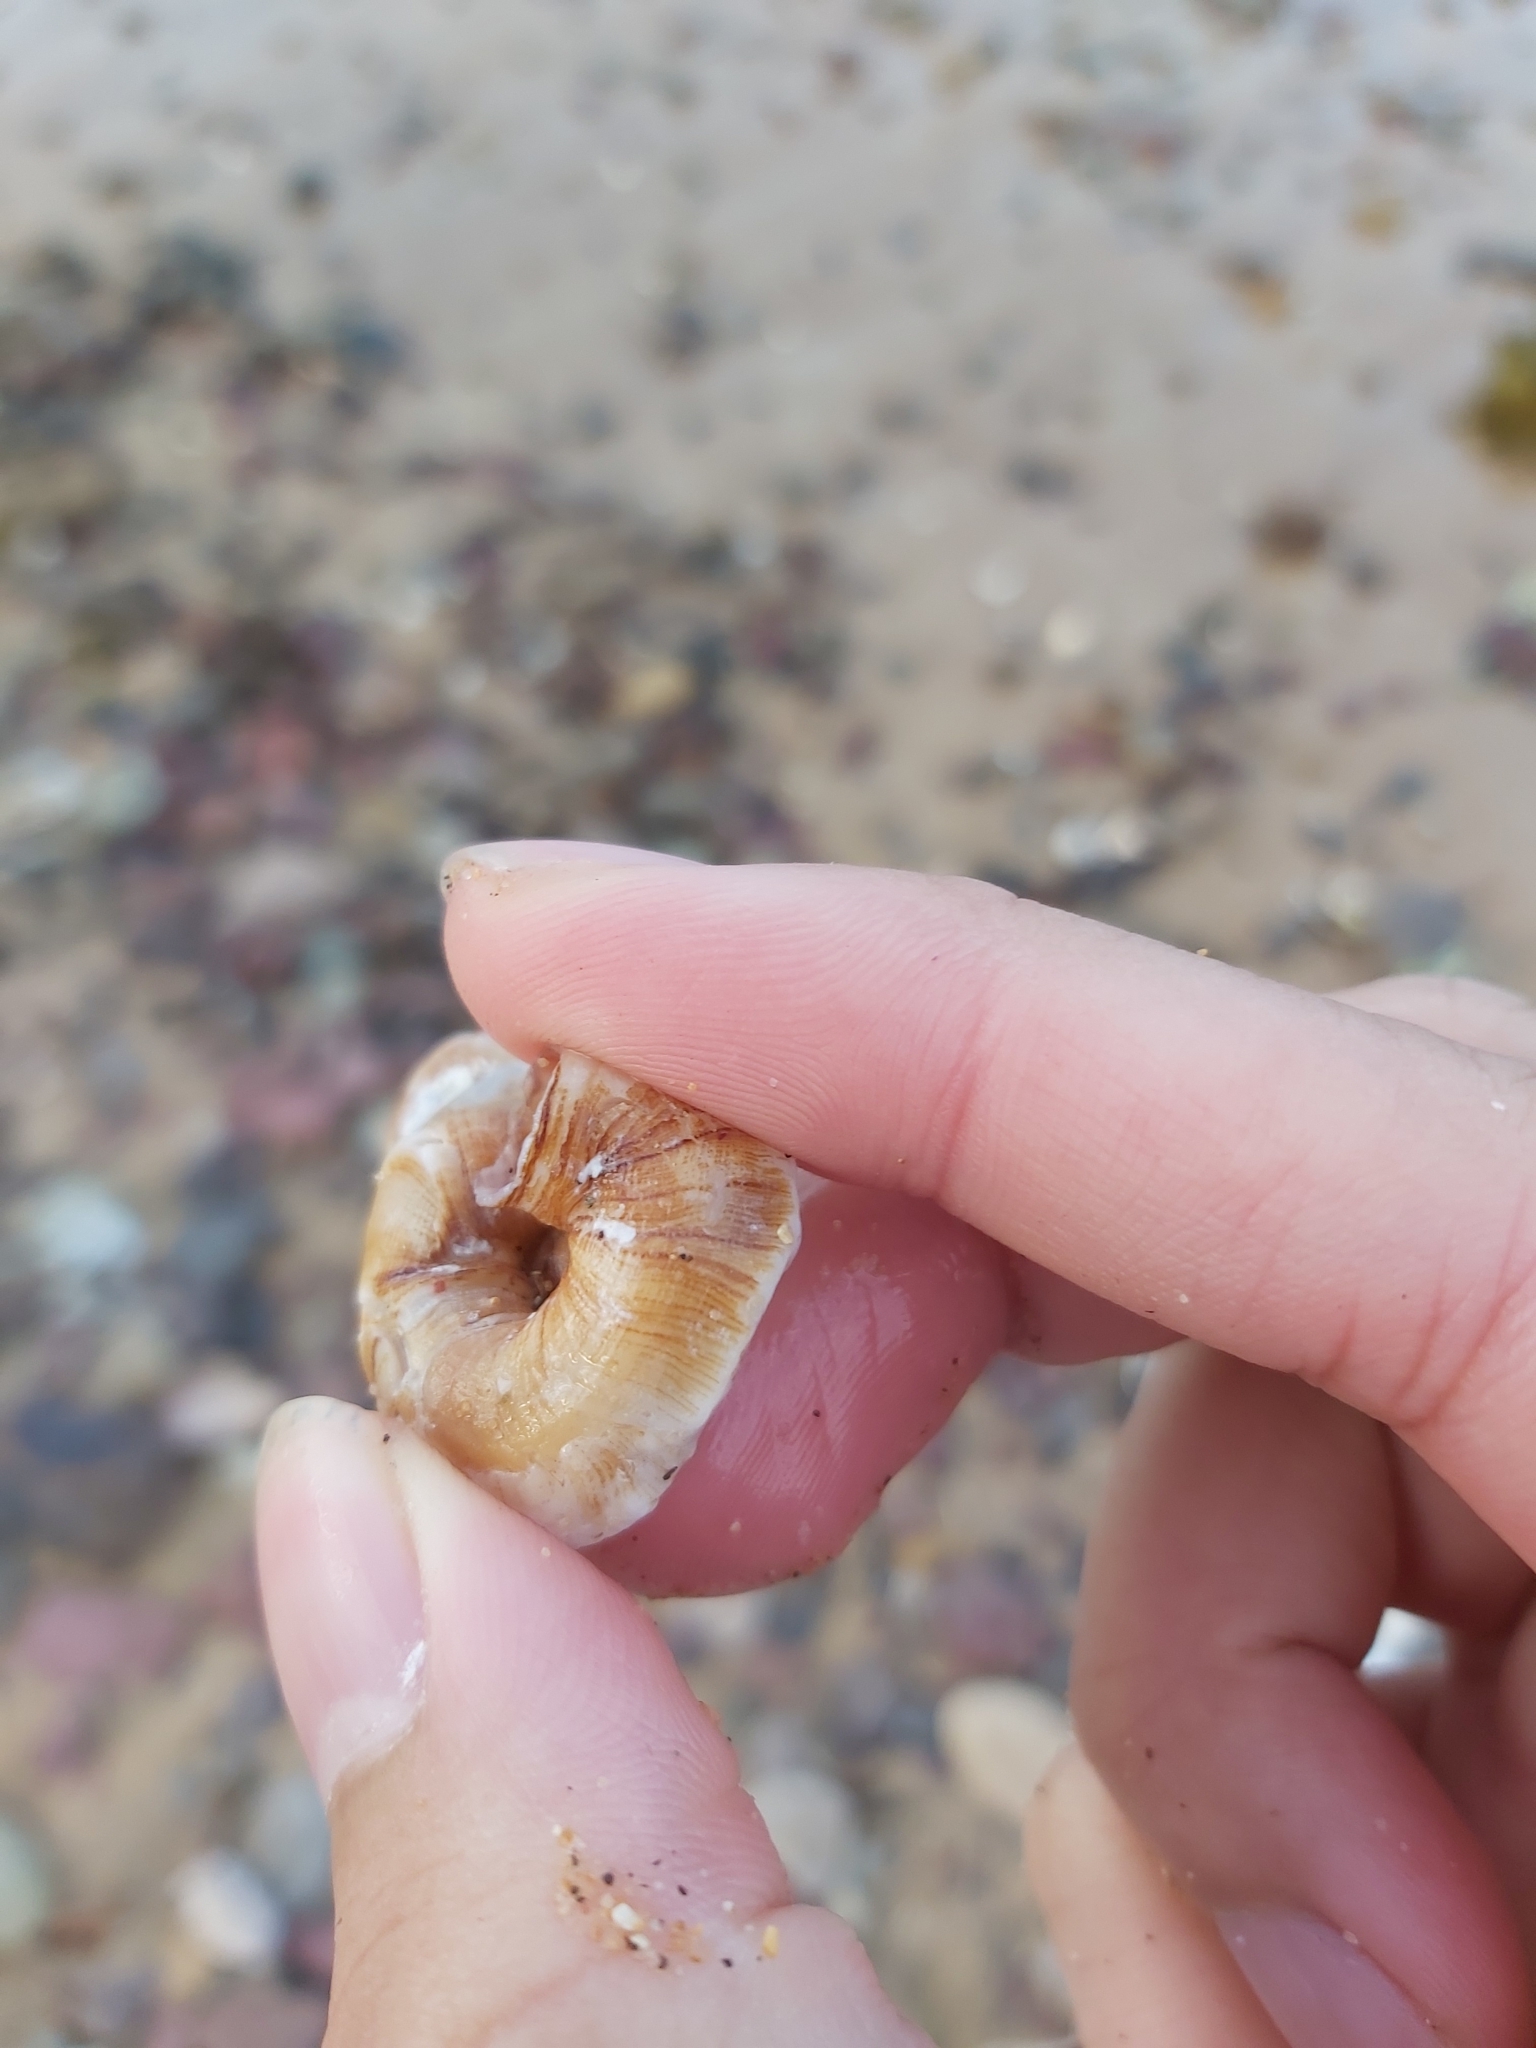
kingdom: Animalia
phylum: Mollusca
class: Gastropoda
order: Littorinimorpha
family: Vermetidae
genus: Thylacodes
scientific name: Thylacodes sipho
